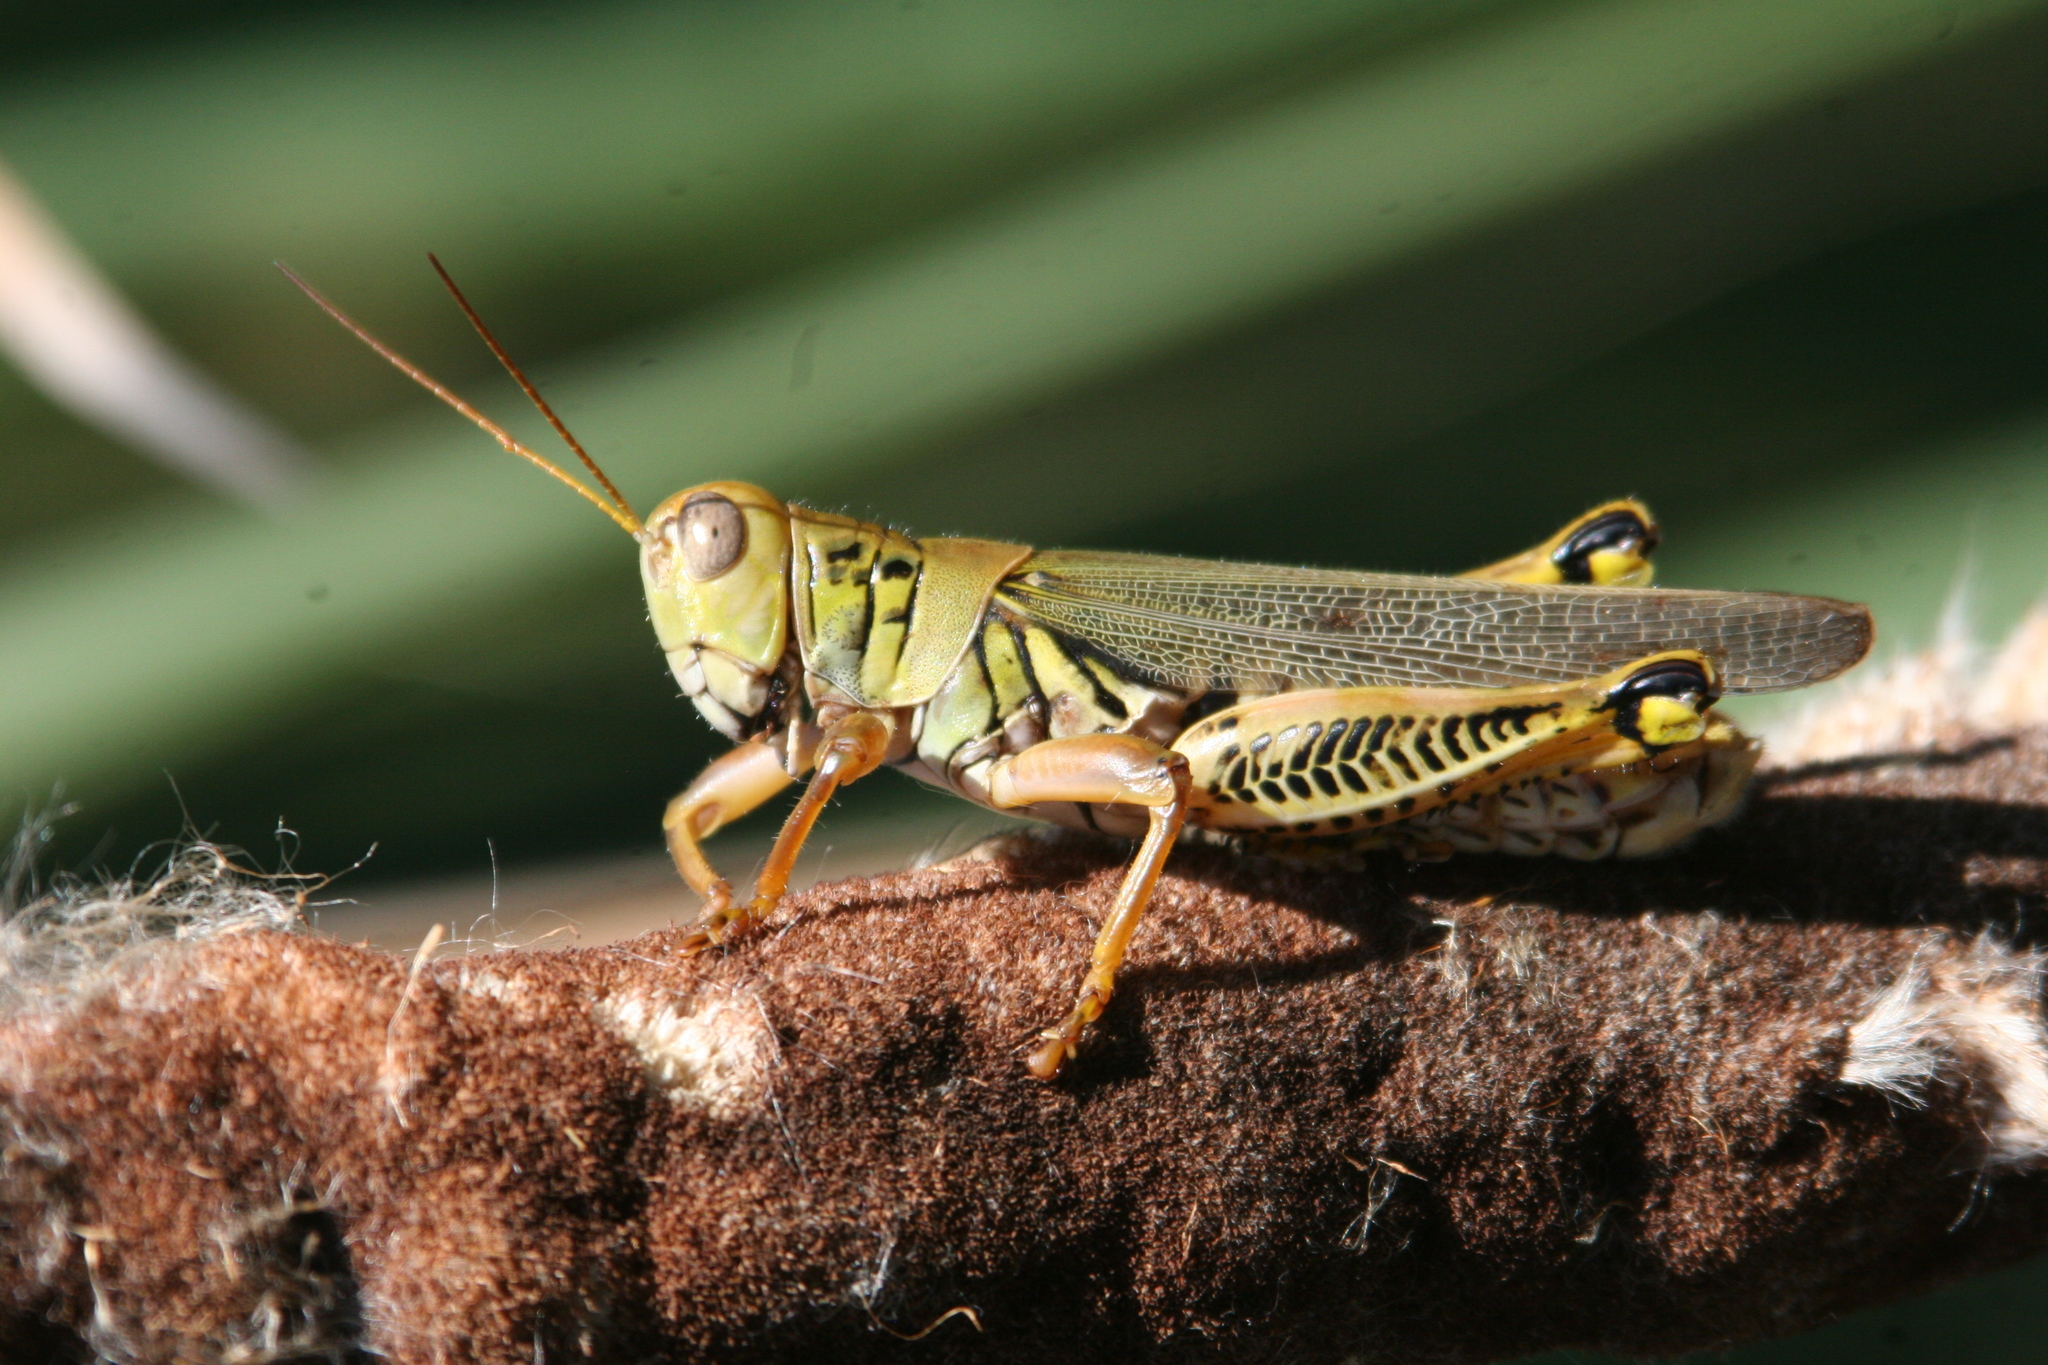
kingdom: Animalia
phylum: Arthropoda
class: Insecta
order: Orthoptera
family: Acrididae
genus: Melanoplus
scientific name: Melanoplus differentialis
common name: Differential grasshopper
